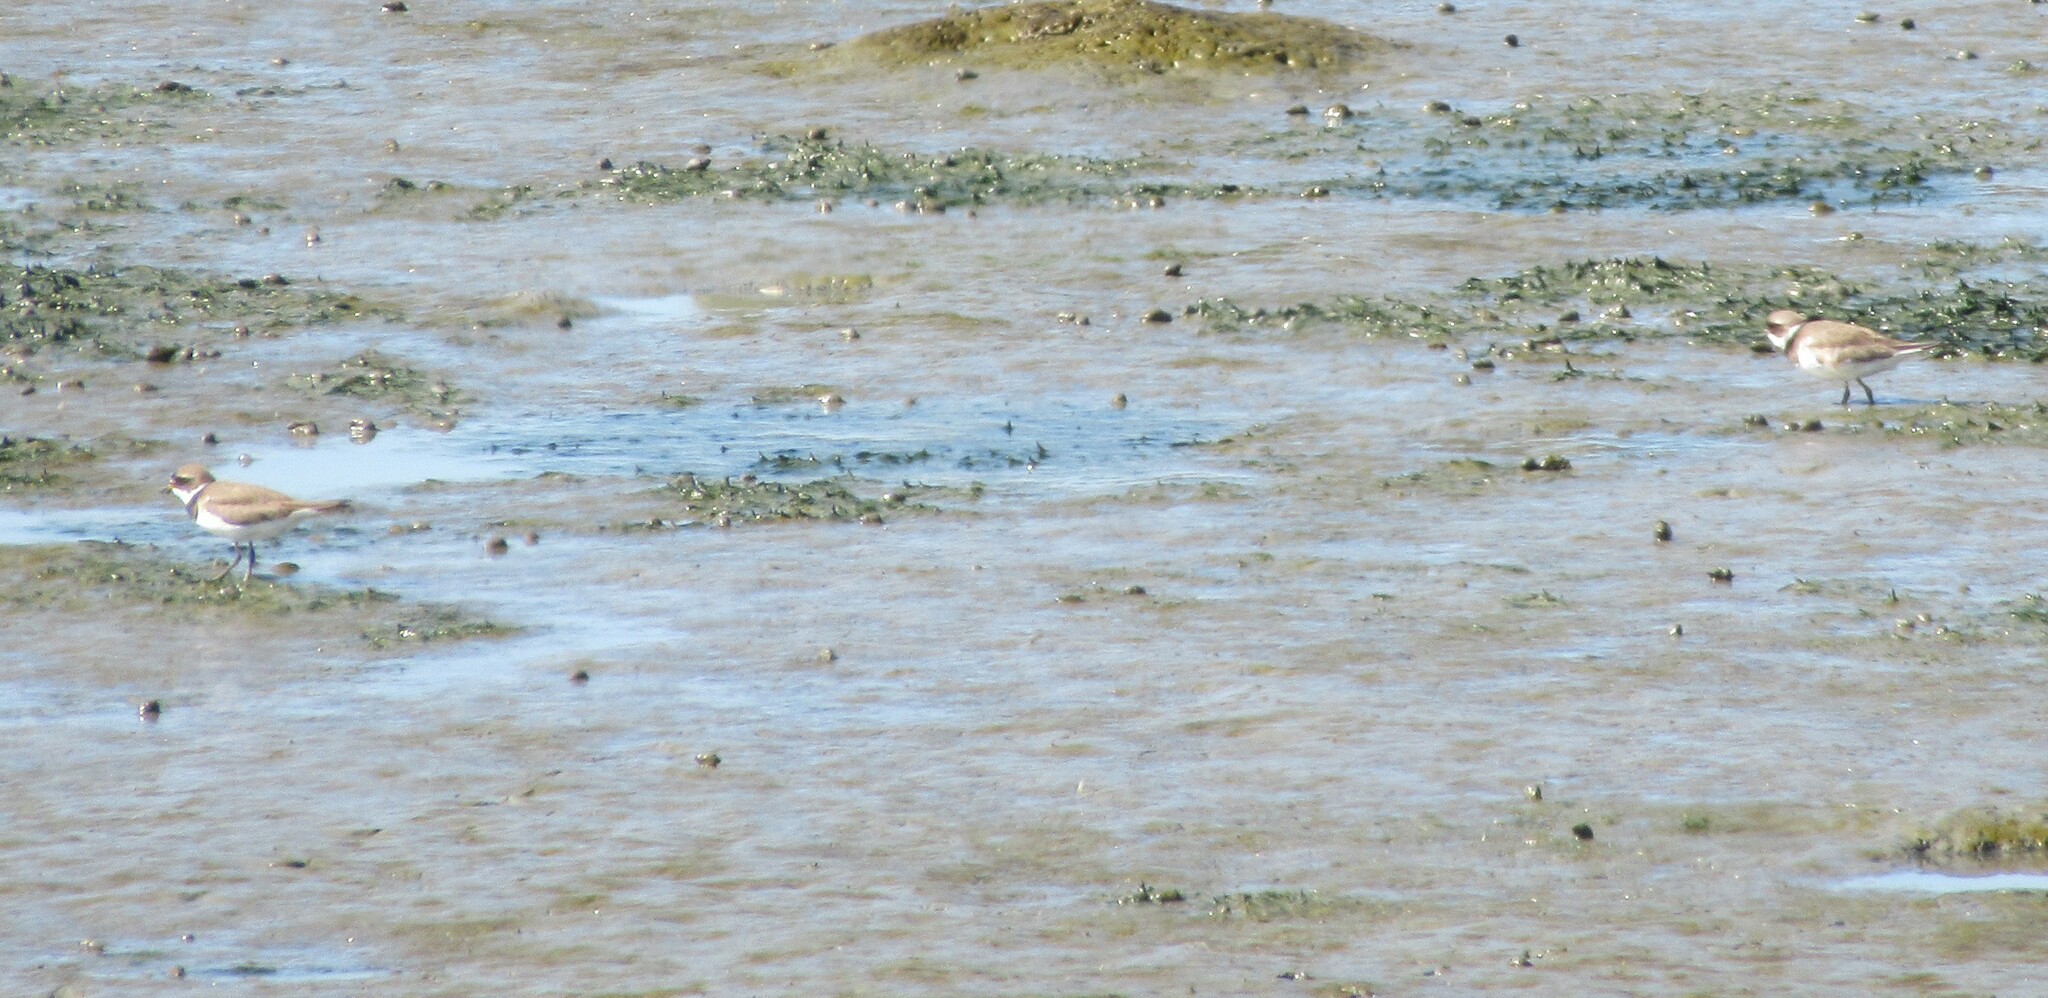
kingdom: Animalia
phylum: Chordata
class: Aves
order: Charadriiformes
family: Charadriidae
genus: Charadrius
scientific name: Charadrius semipalmatus
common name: Semipalmated plover
